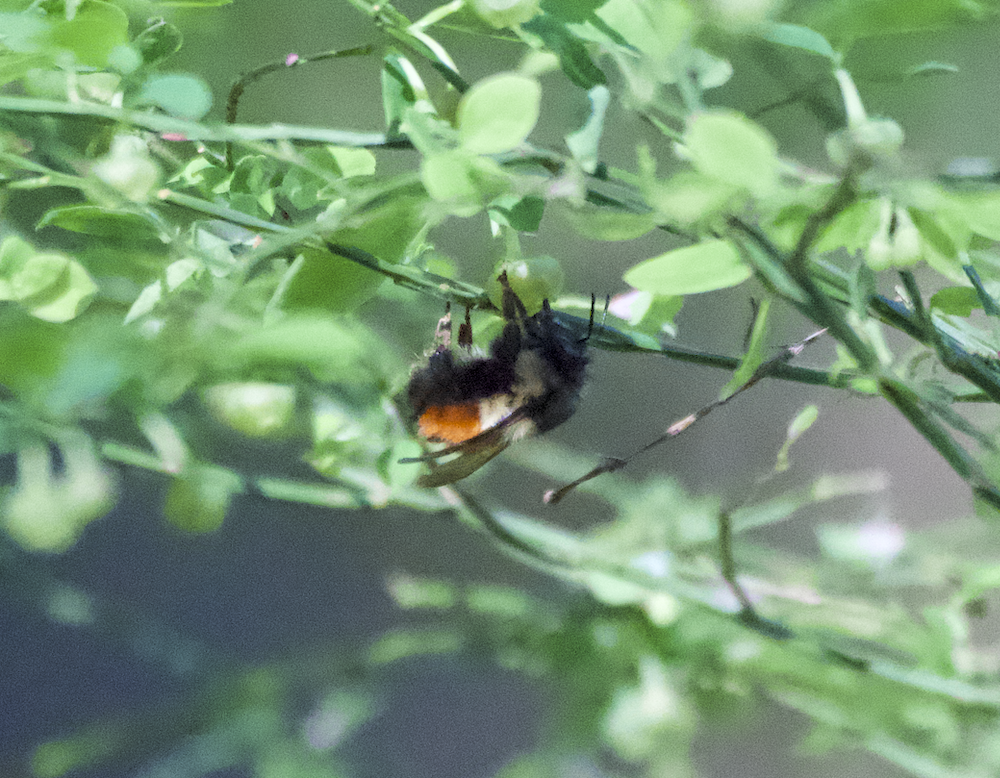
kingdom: Animalia
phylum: Arthropoda
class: Insecta
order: Hymenoptera
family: Apidae
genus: Bombus
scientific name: Bombus melanopygus
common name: Black tail bumble bee
